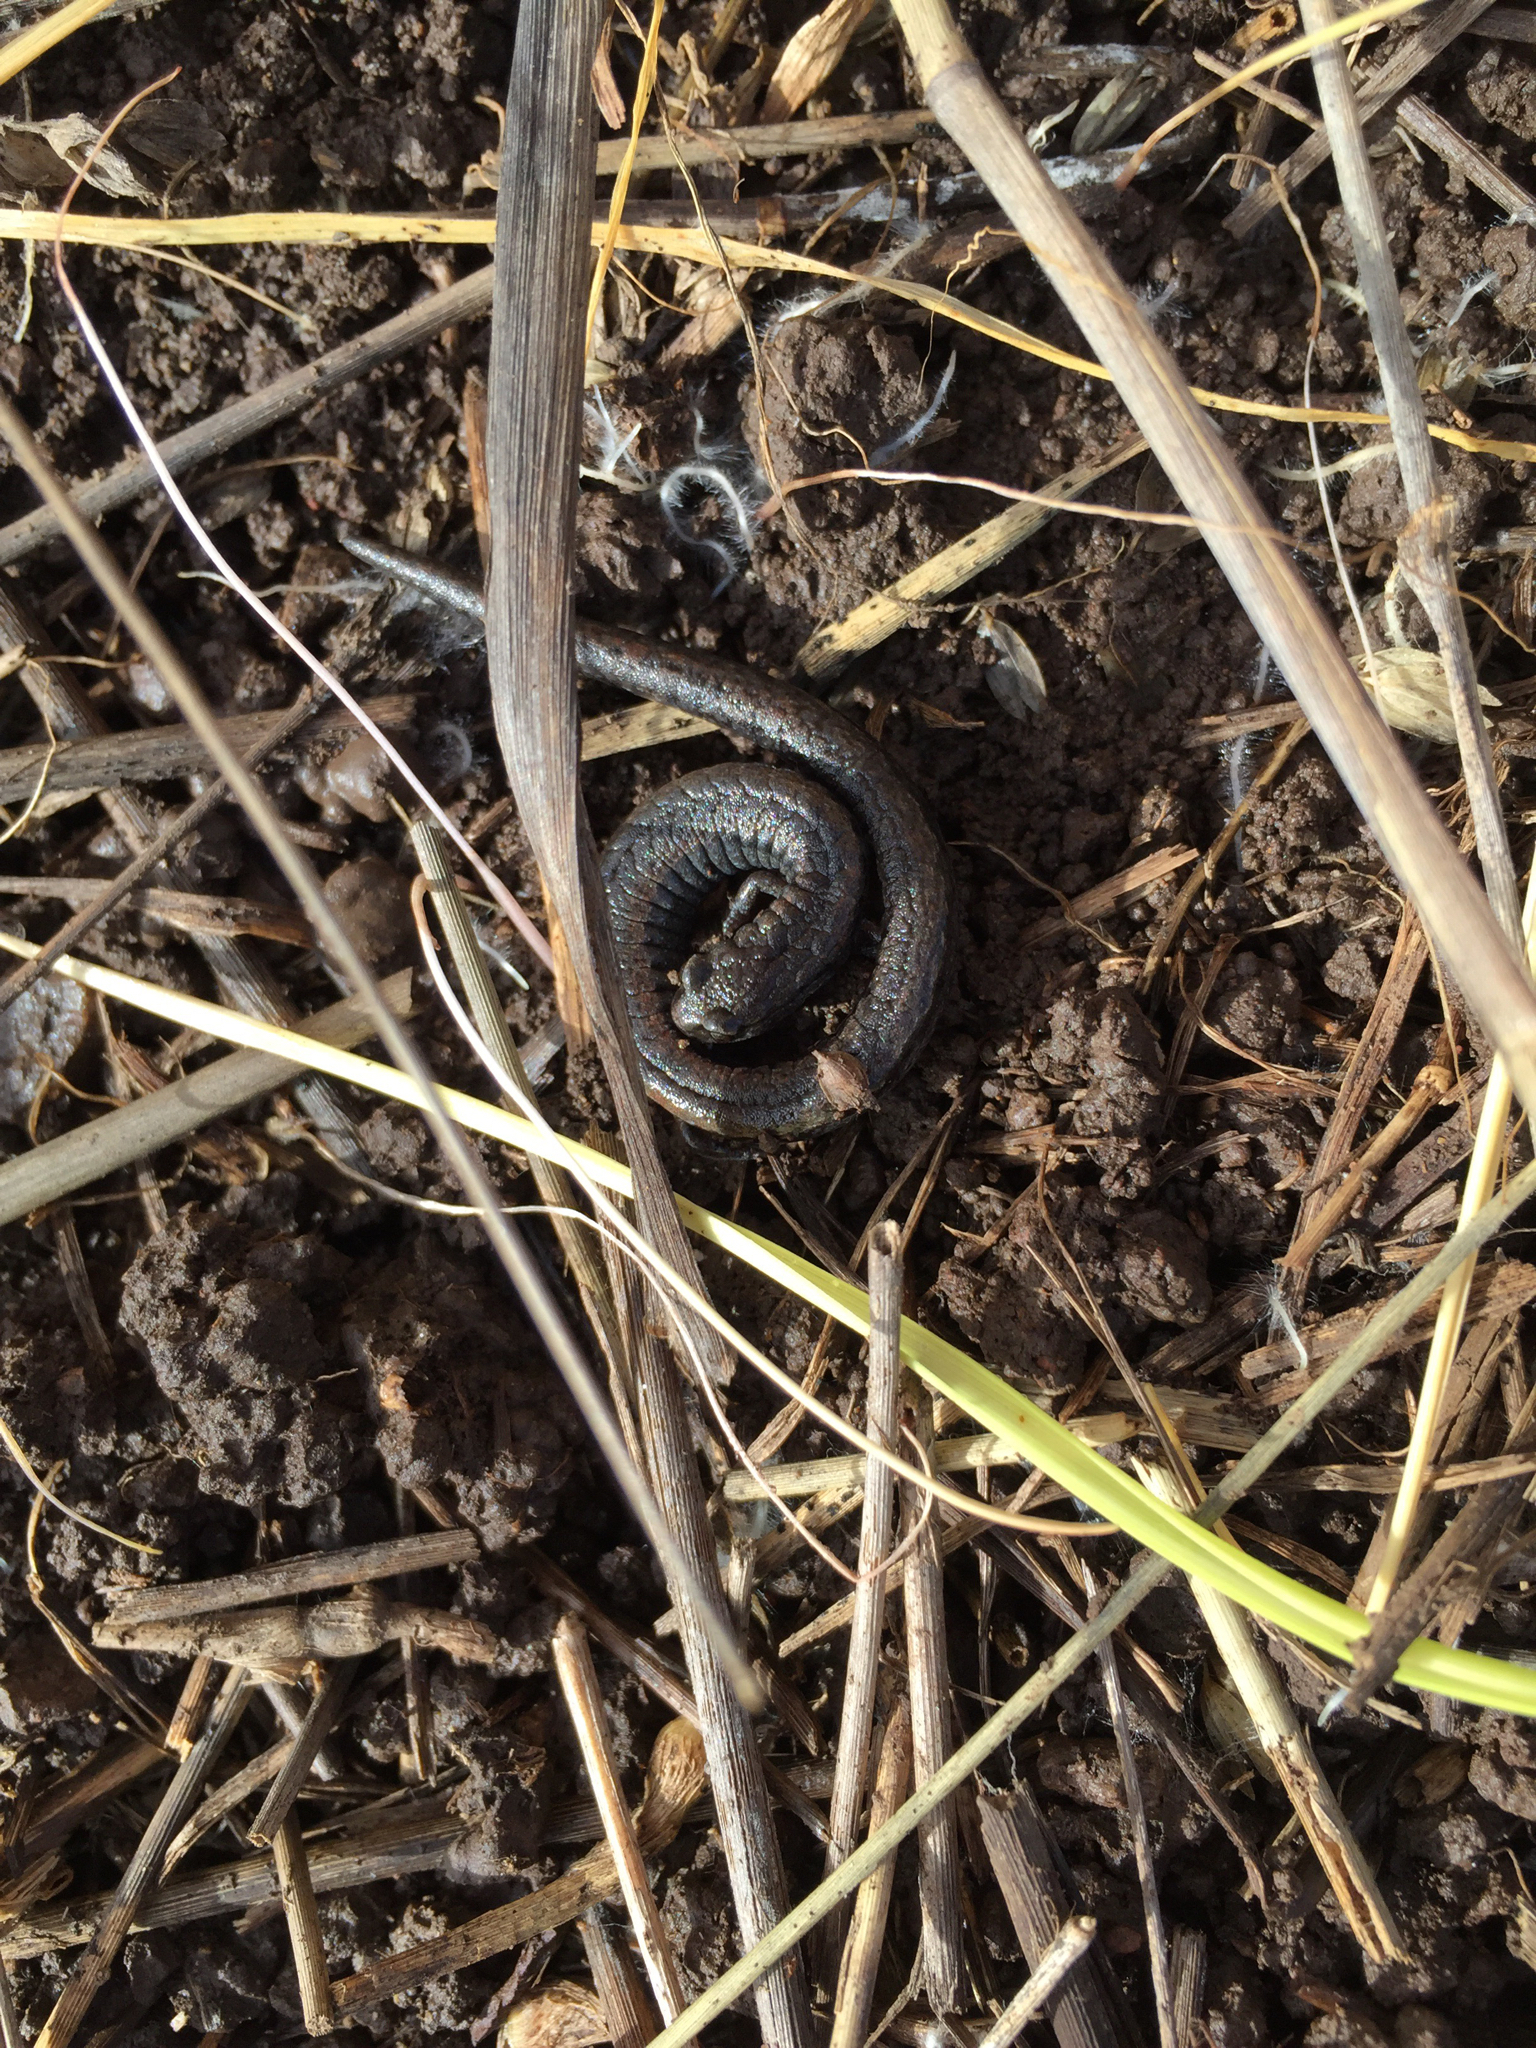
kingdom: Animalia
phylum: Chordata
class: Amphibia
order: Caudata
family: Plethodontidae
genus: Batrachoseps
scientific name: Batrachoseps attenuatus
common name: California slender salamander
